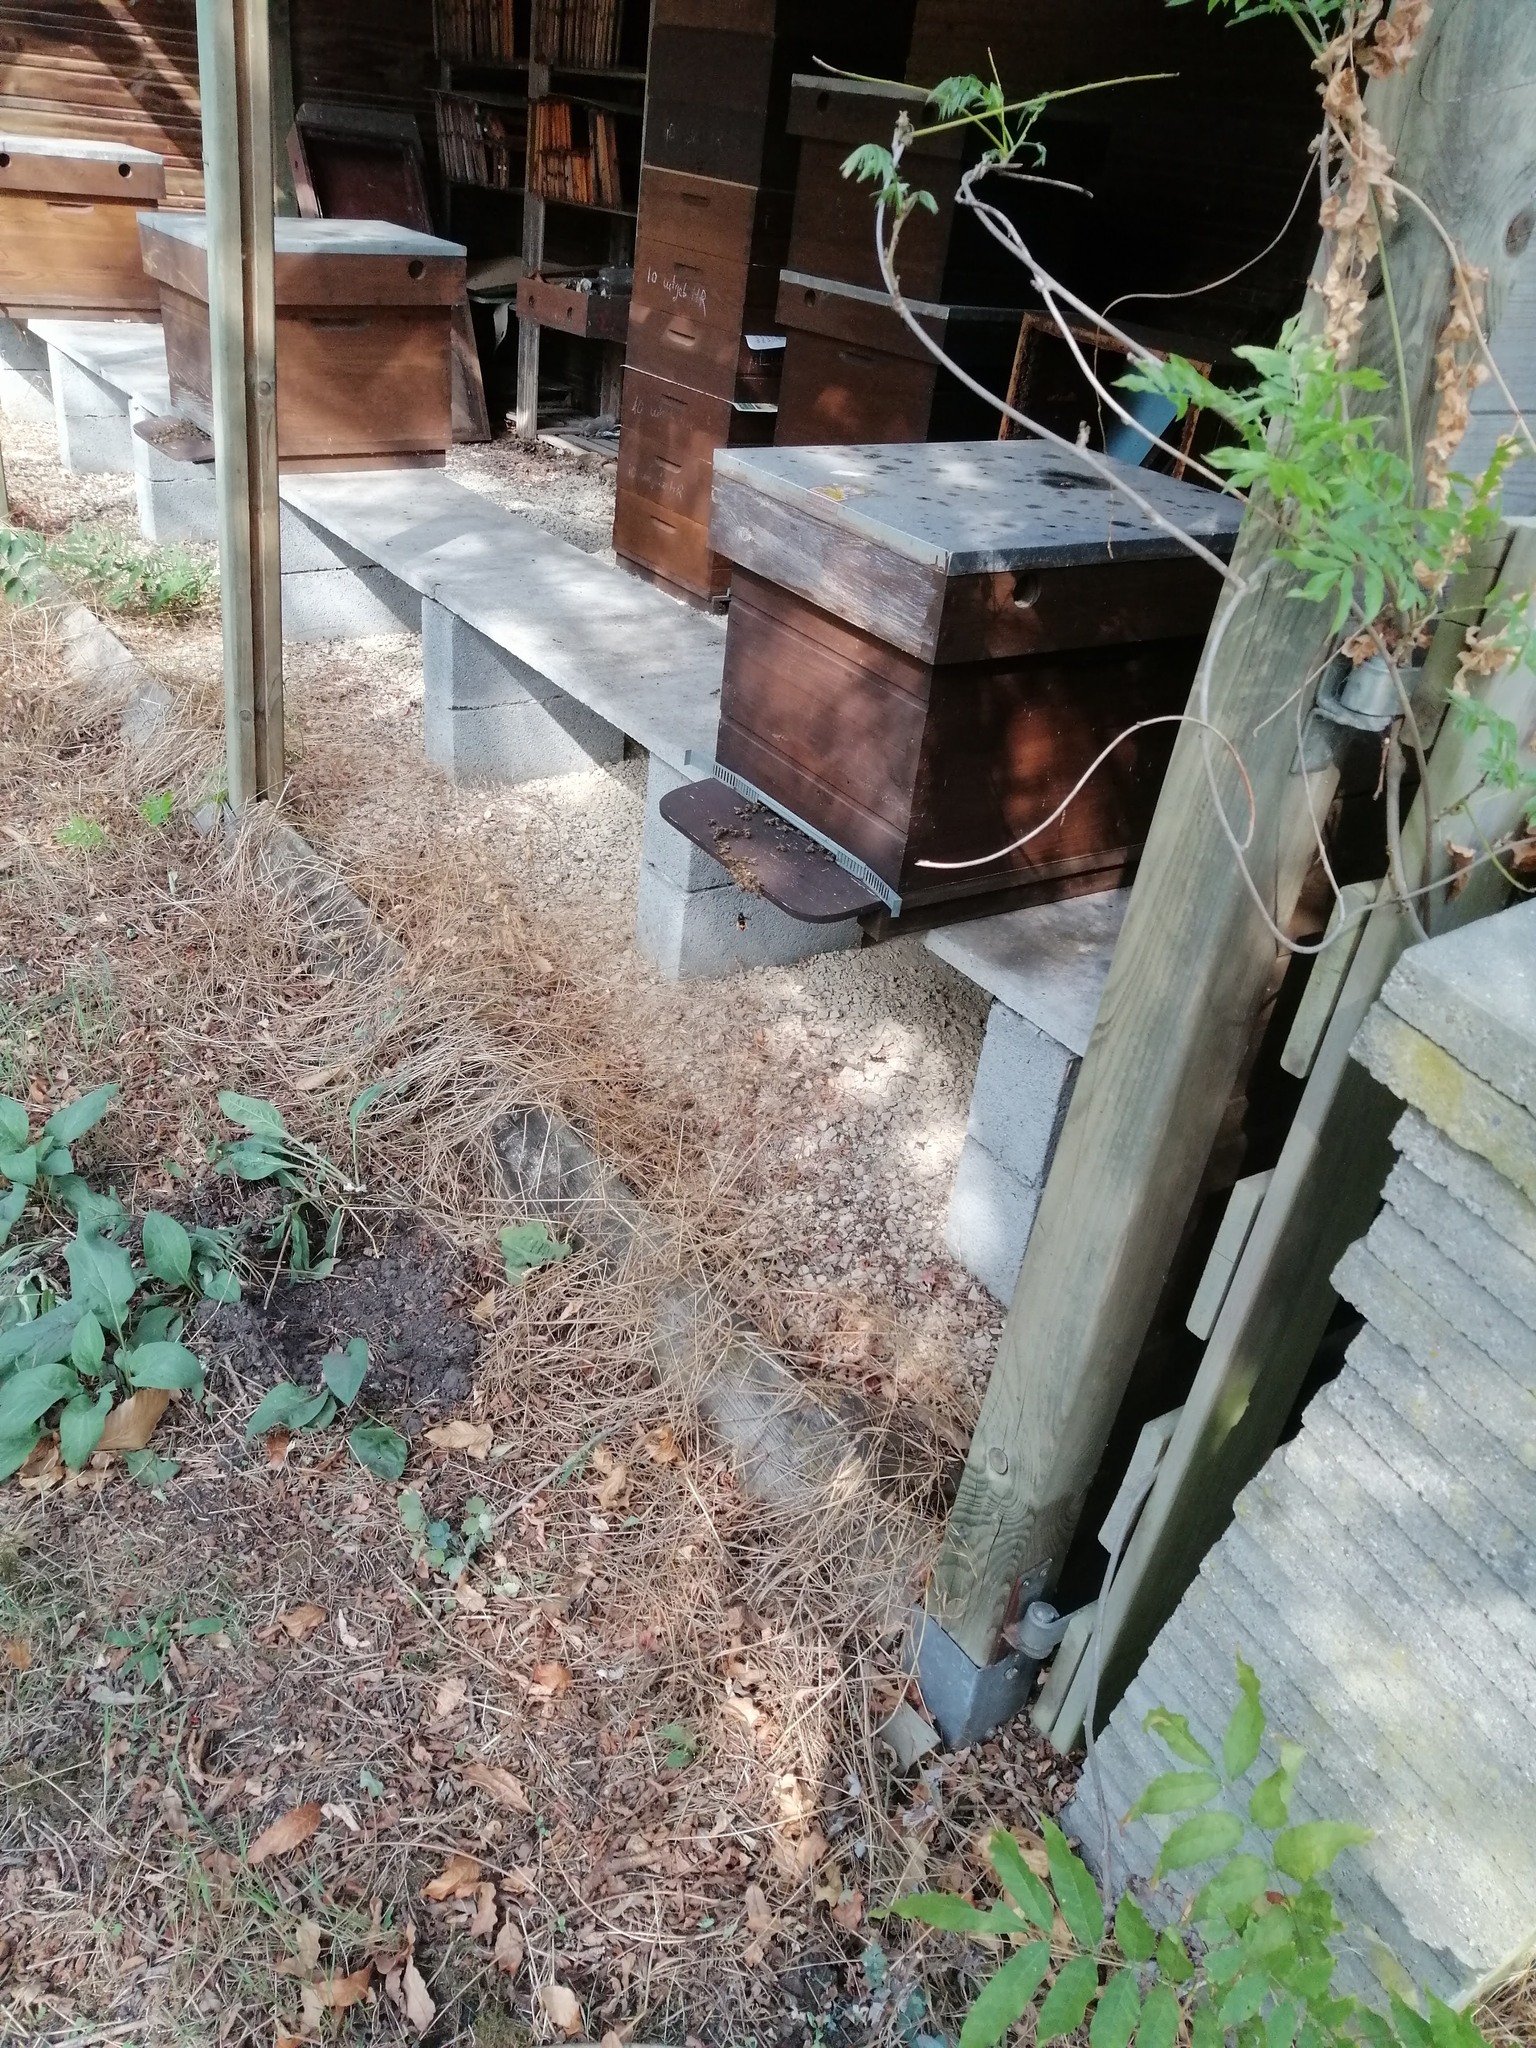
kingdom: Animalia
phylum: Arthropoda
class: Insecta
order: Hymenoptera
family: Vespidae
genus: Vespa
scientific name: Vespa velutina
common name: Asian hornet
